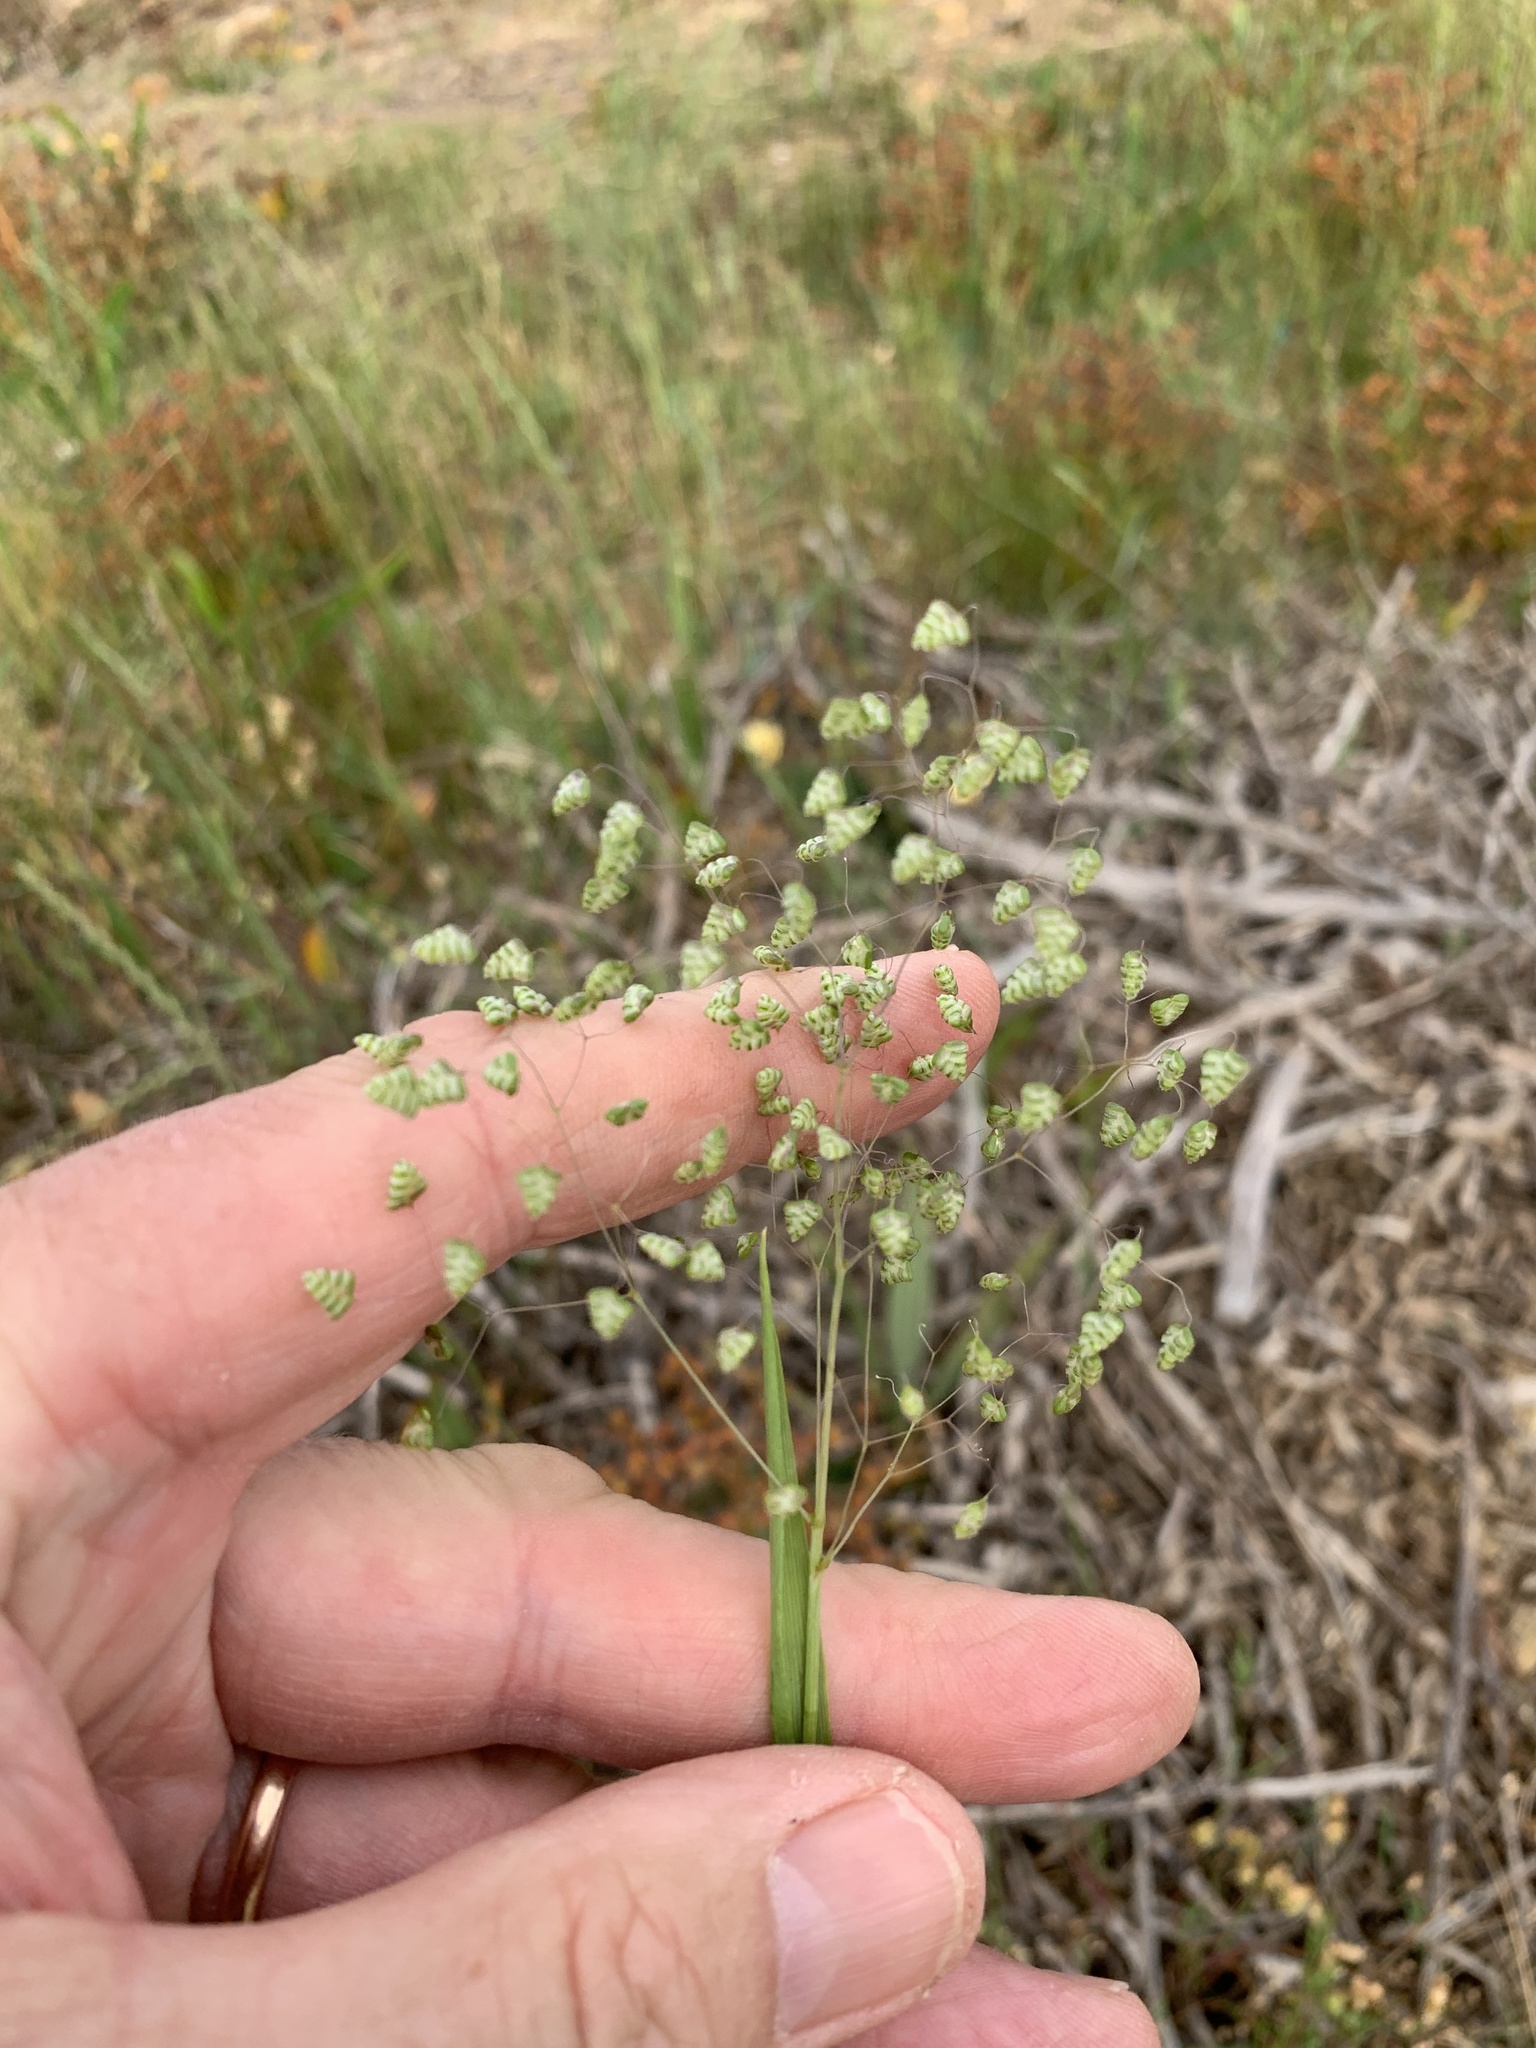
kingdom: Plantae
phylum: Tracheophyta
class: Liliopsida
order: Poales
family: Poaceae
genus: Briza
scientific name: Briza minor
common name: Lesser quaking-grass
